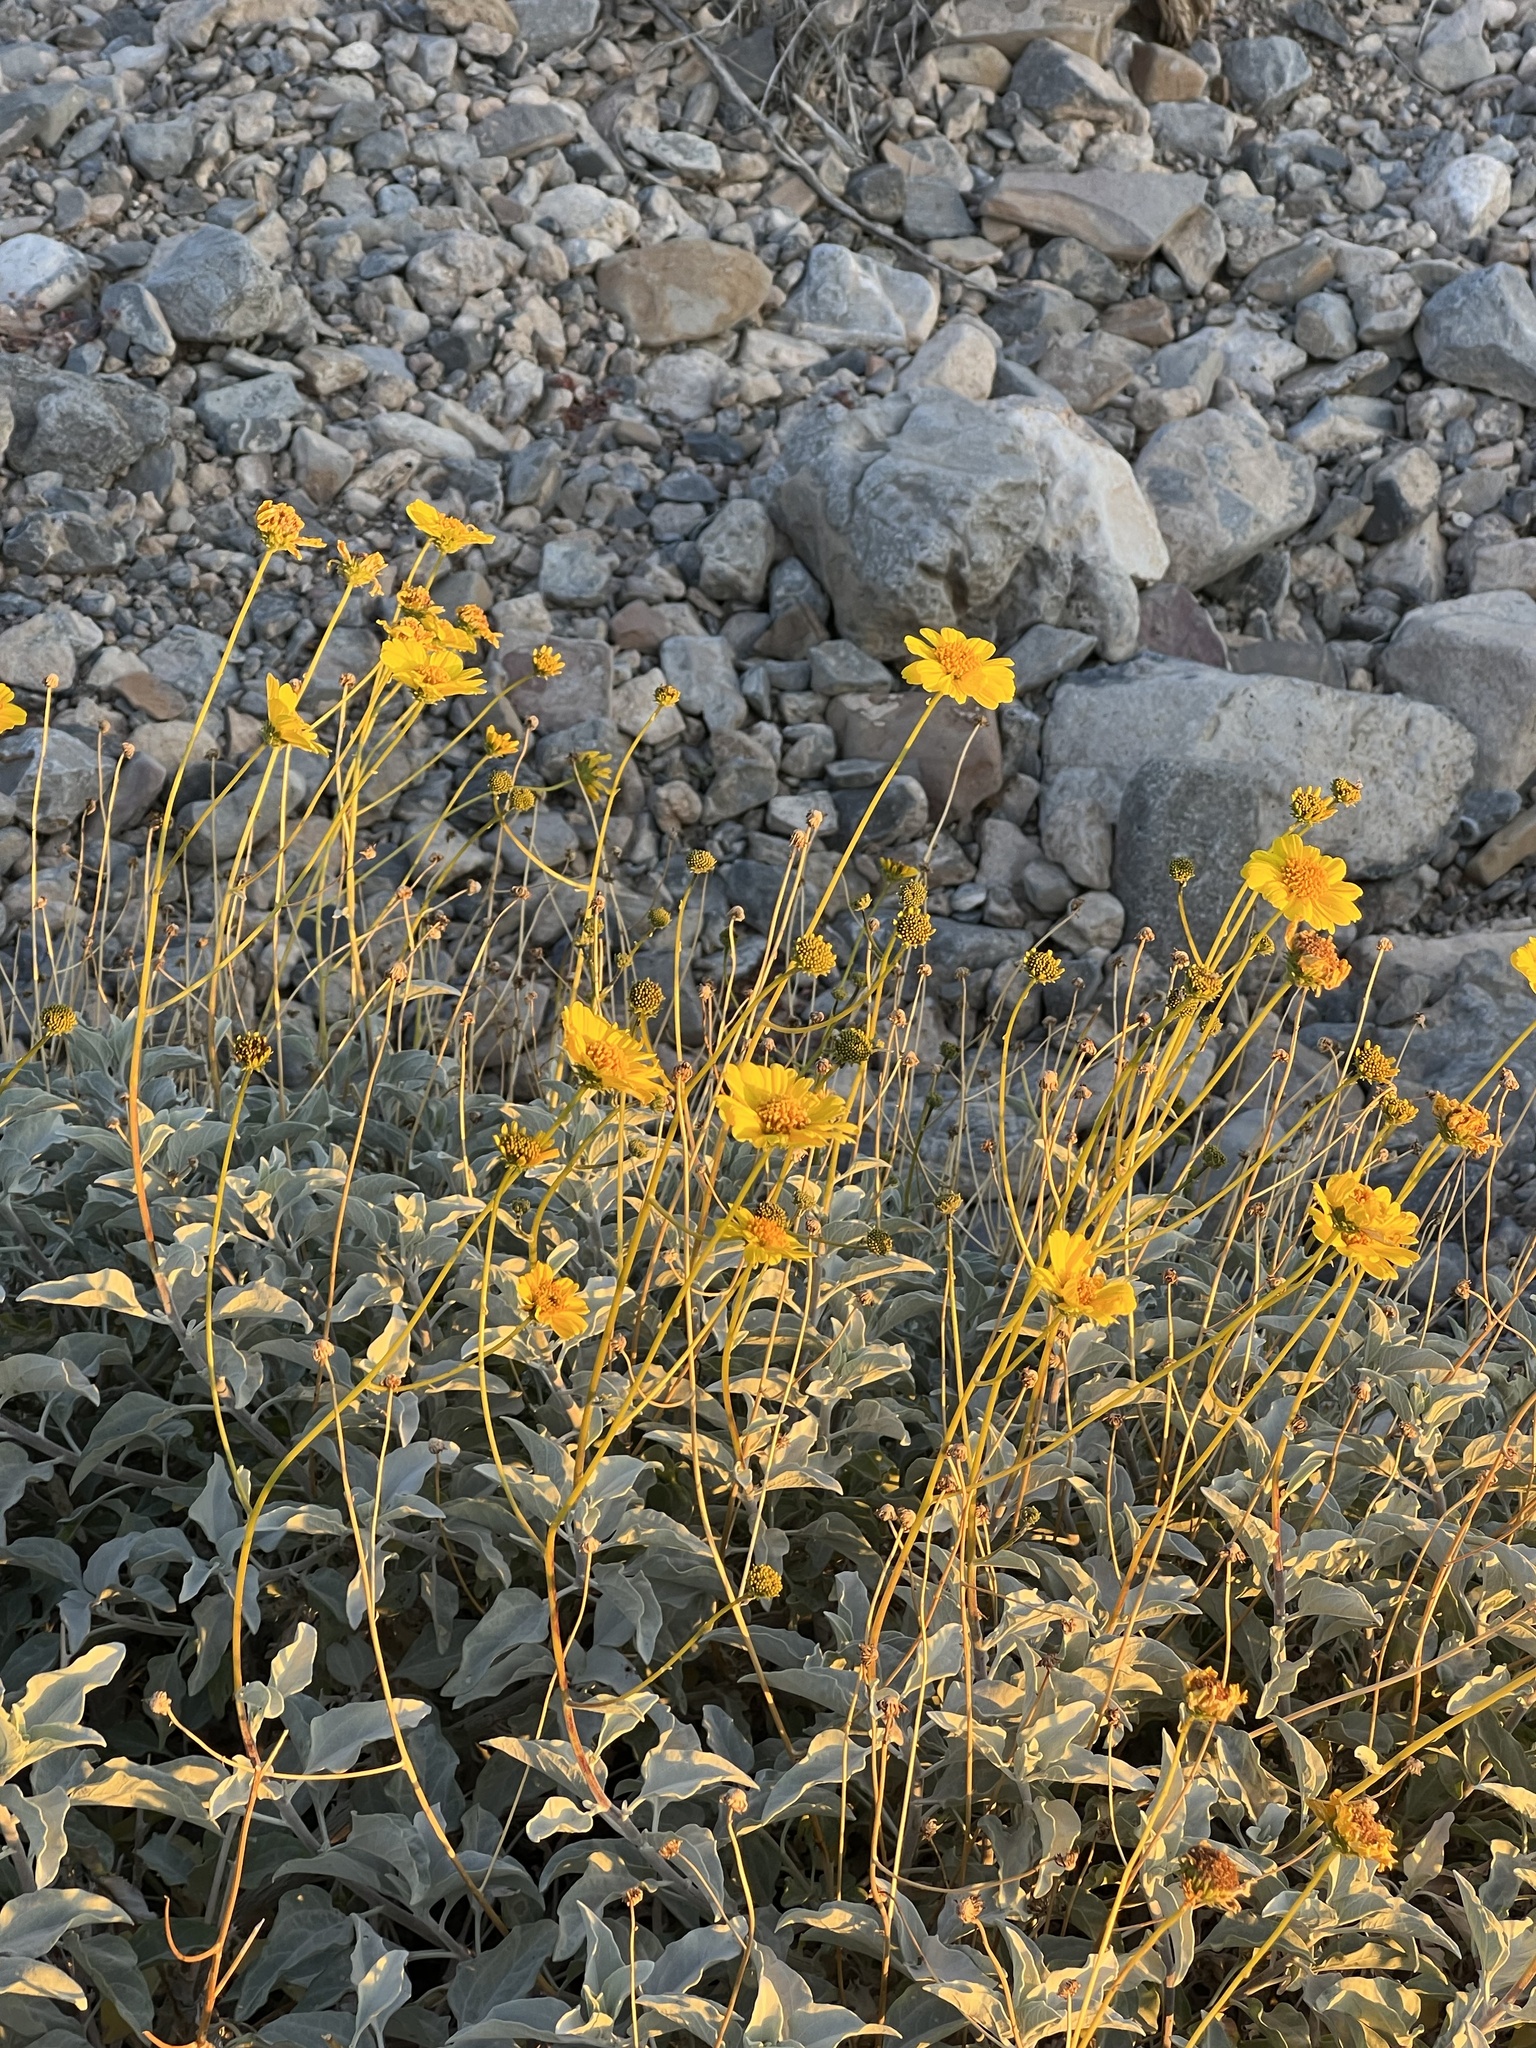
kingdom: Plantae
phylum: Tracheophyta
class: Magnoliopsida
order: Asterales
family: Asteraceae
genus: Encelia
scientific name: Encelia farinosa
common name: Brittlebush
